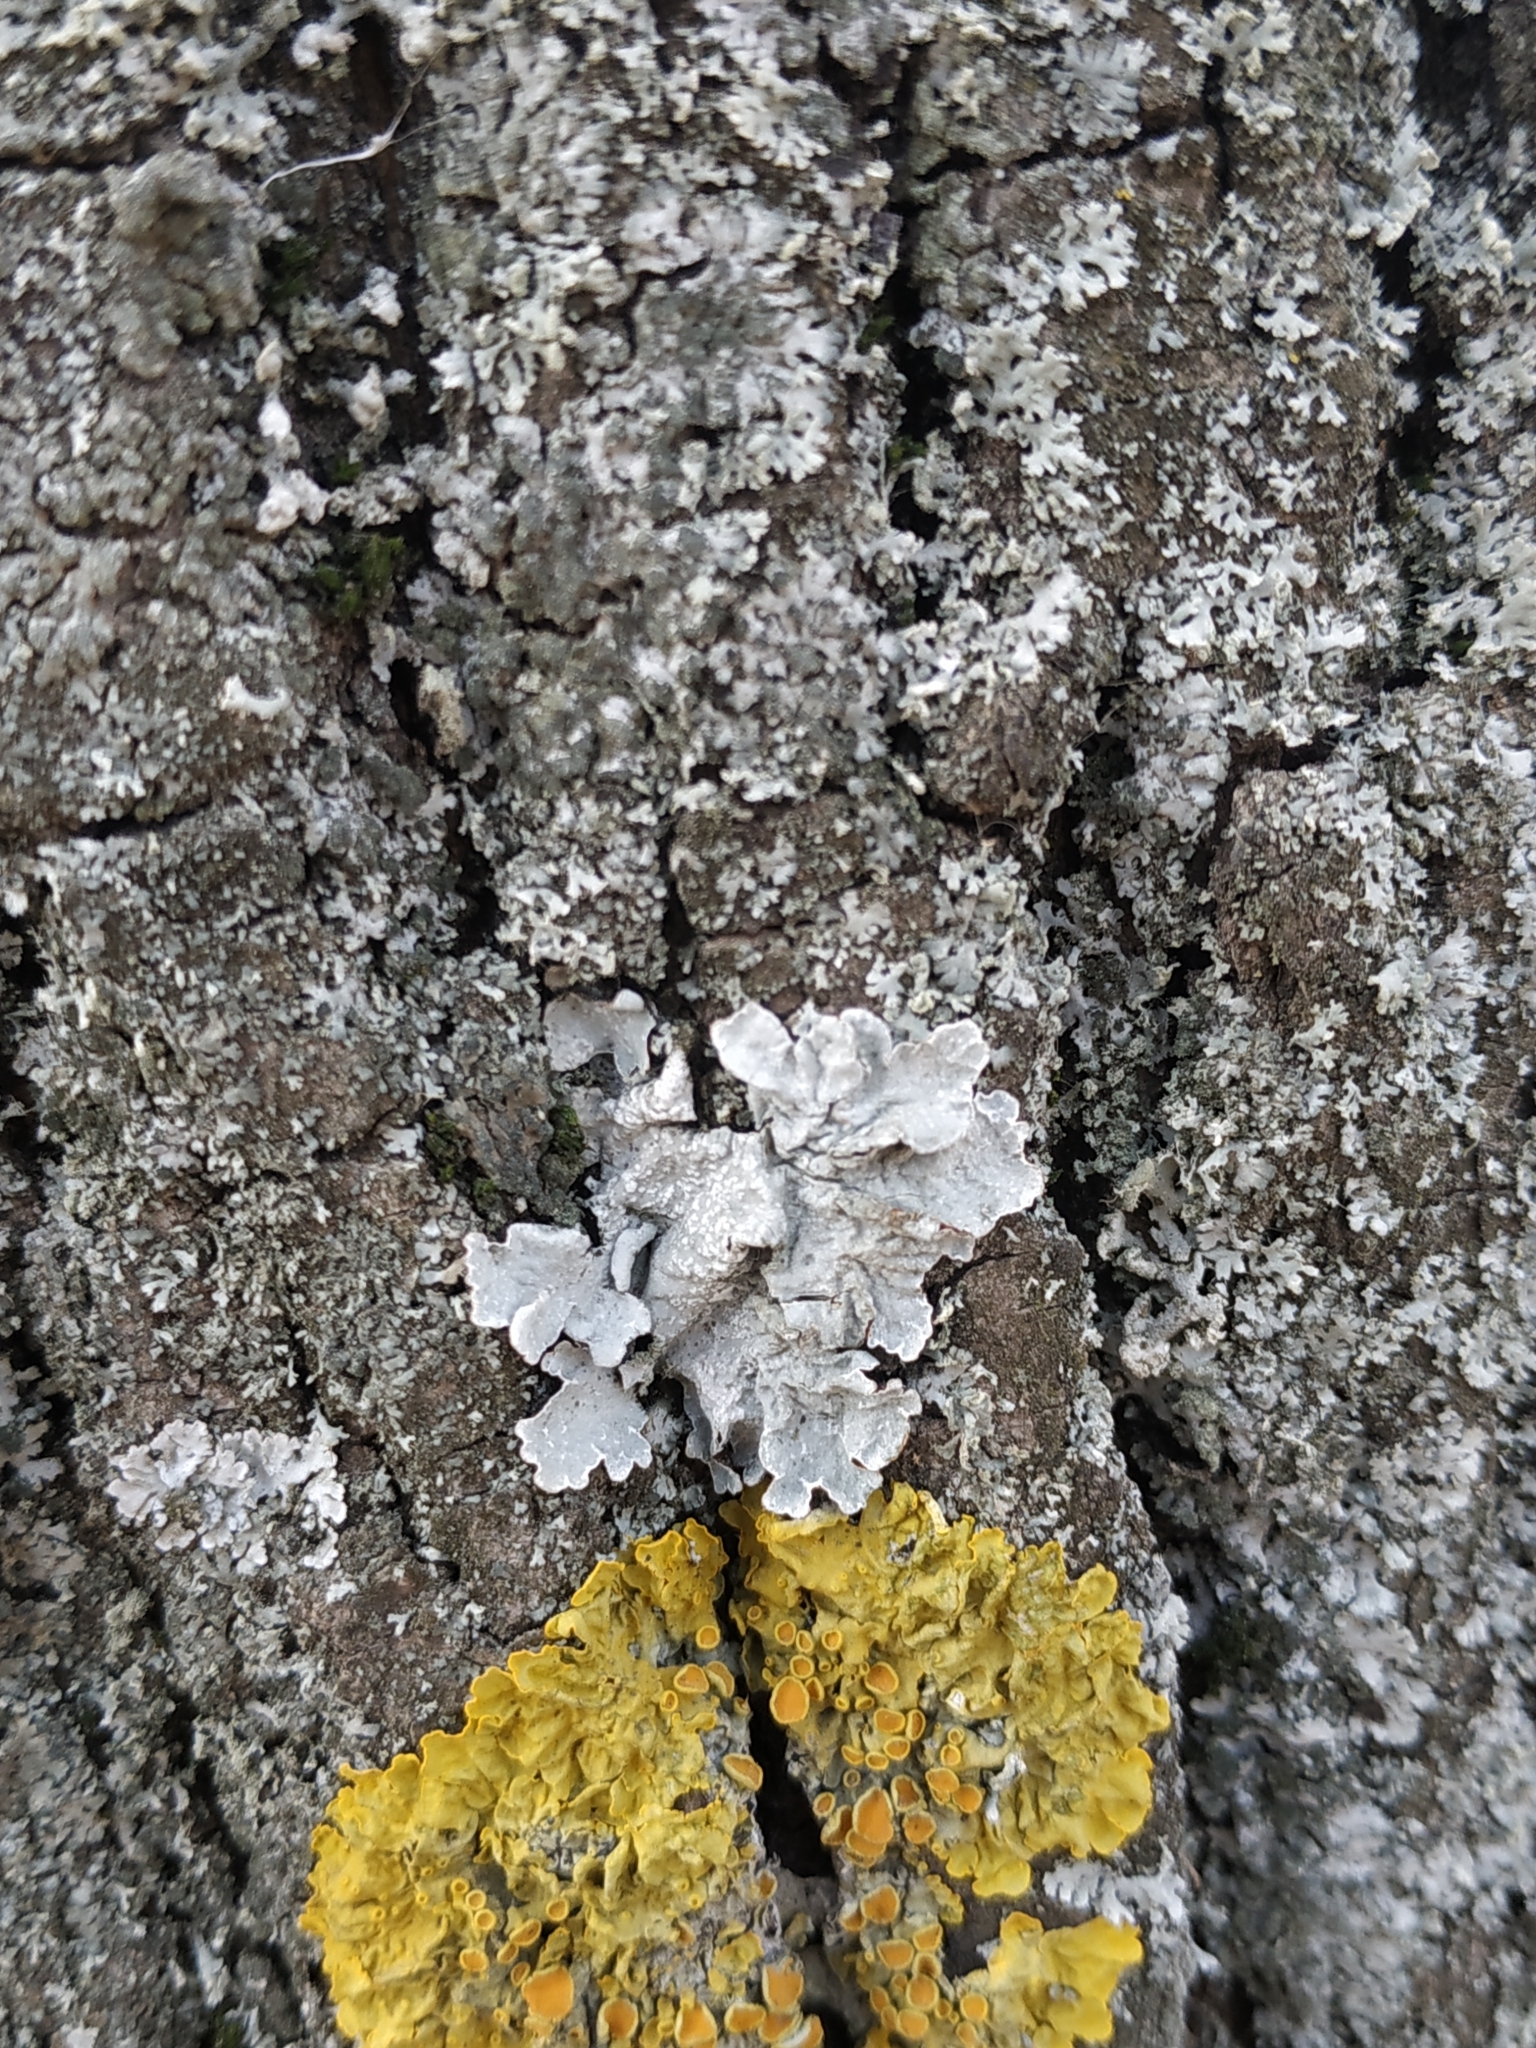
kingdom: Fungi
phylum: Ascomycota
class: Lecanoromycetes
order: Lecanorales
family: Parmeliaceae
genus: Parmelia
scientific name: Parmelia sulcata
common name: Netted shield lichen
